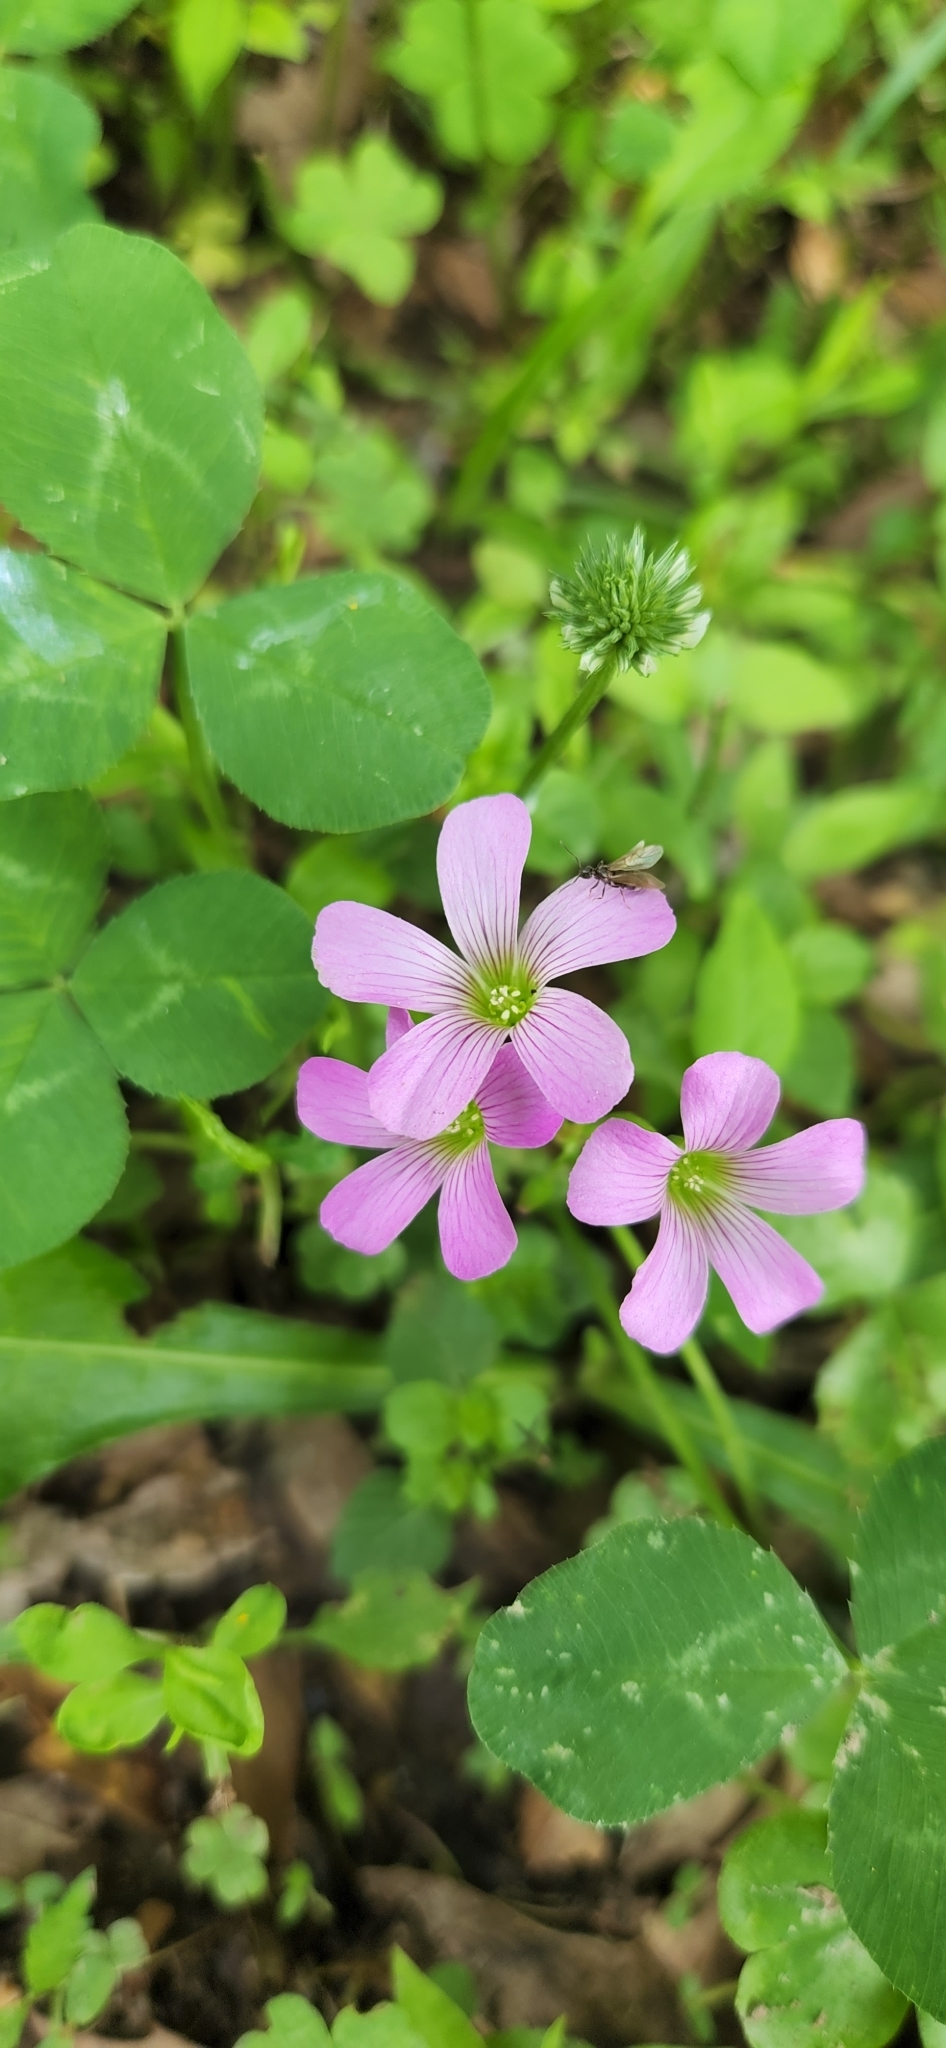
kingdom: Plantae
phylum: Tracheophyta
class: Magnoliopsida
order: Oxalidales
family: Oxalidaceae
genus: Oxalis
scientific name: Oxalis debilis
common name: Large-flowered pink-sorrel
